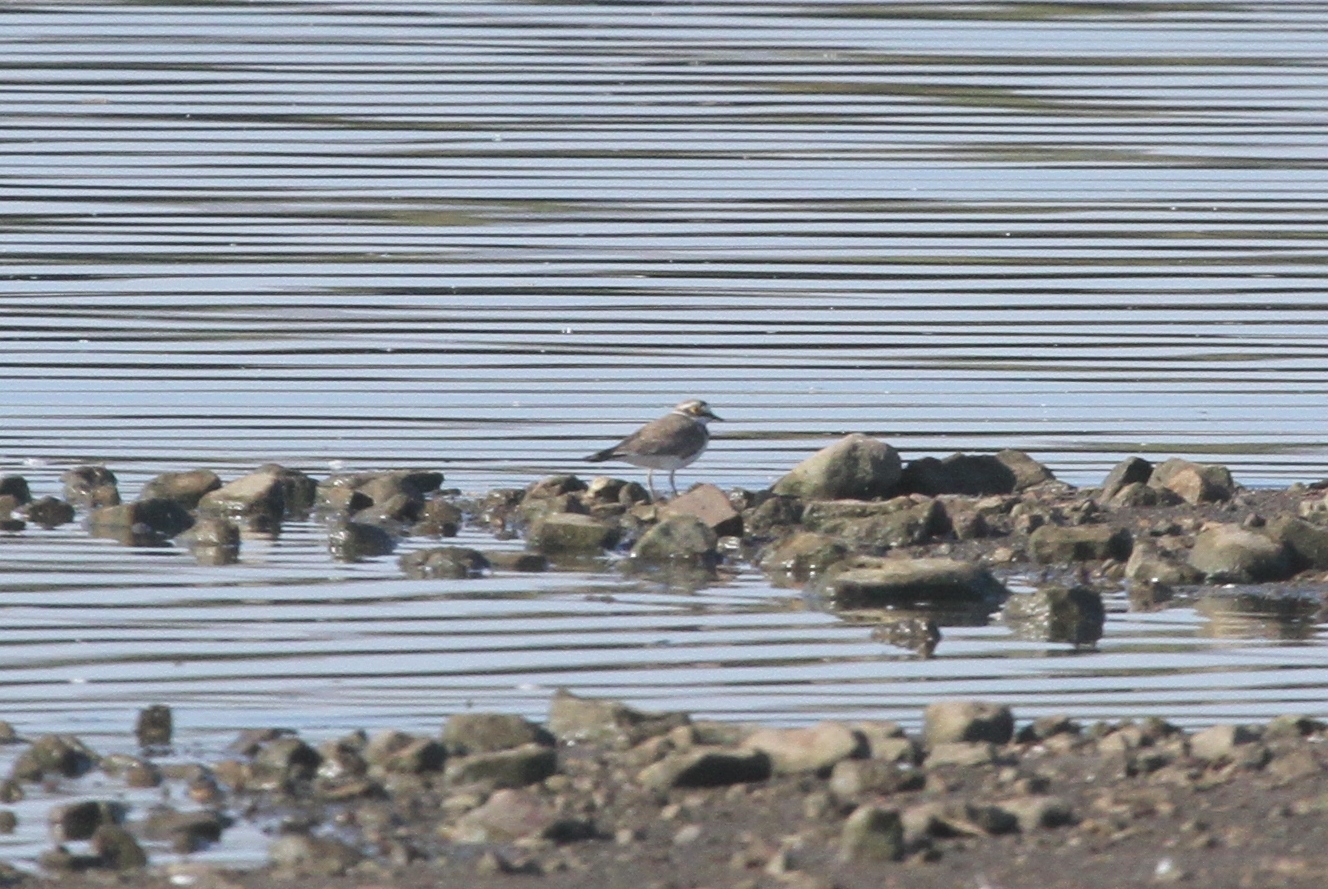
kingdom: Animalia
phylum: Chordata
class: Aves
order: Charadriiformes
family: Charadriidae
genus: Charadrius
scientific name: Charadrius dubius
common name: Little ringed plover
